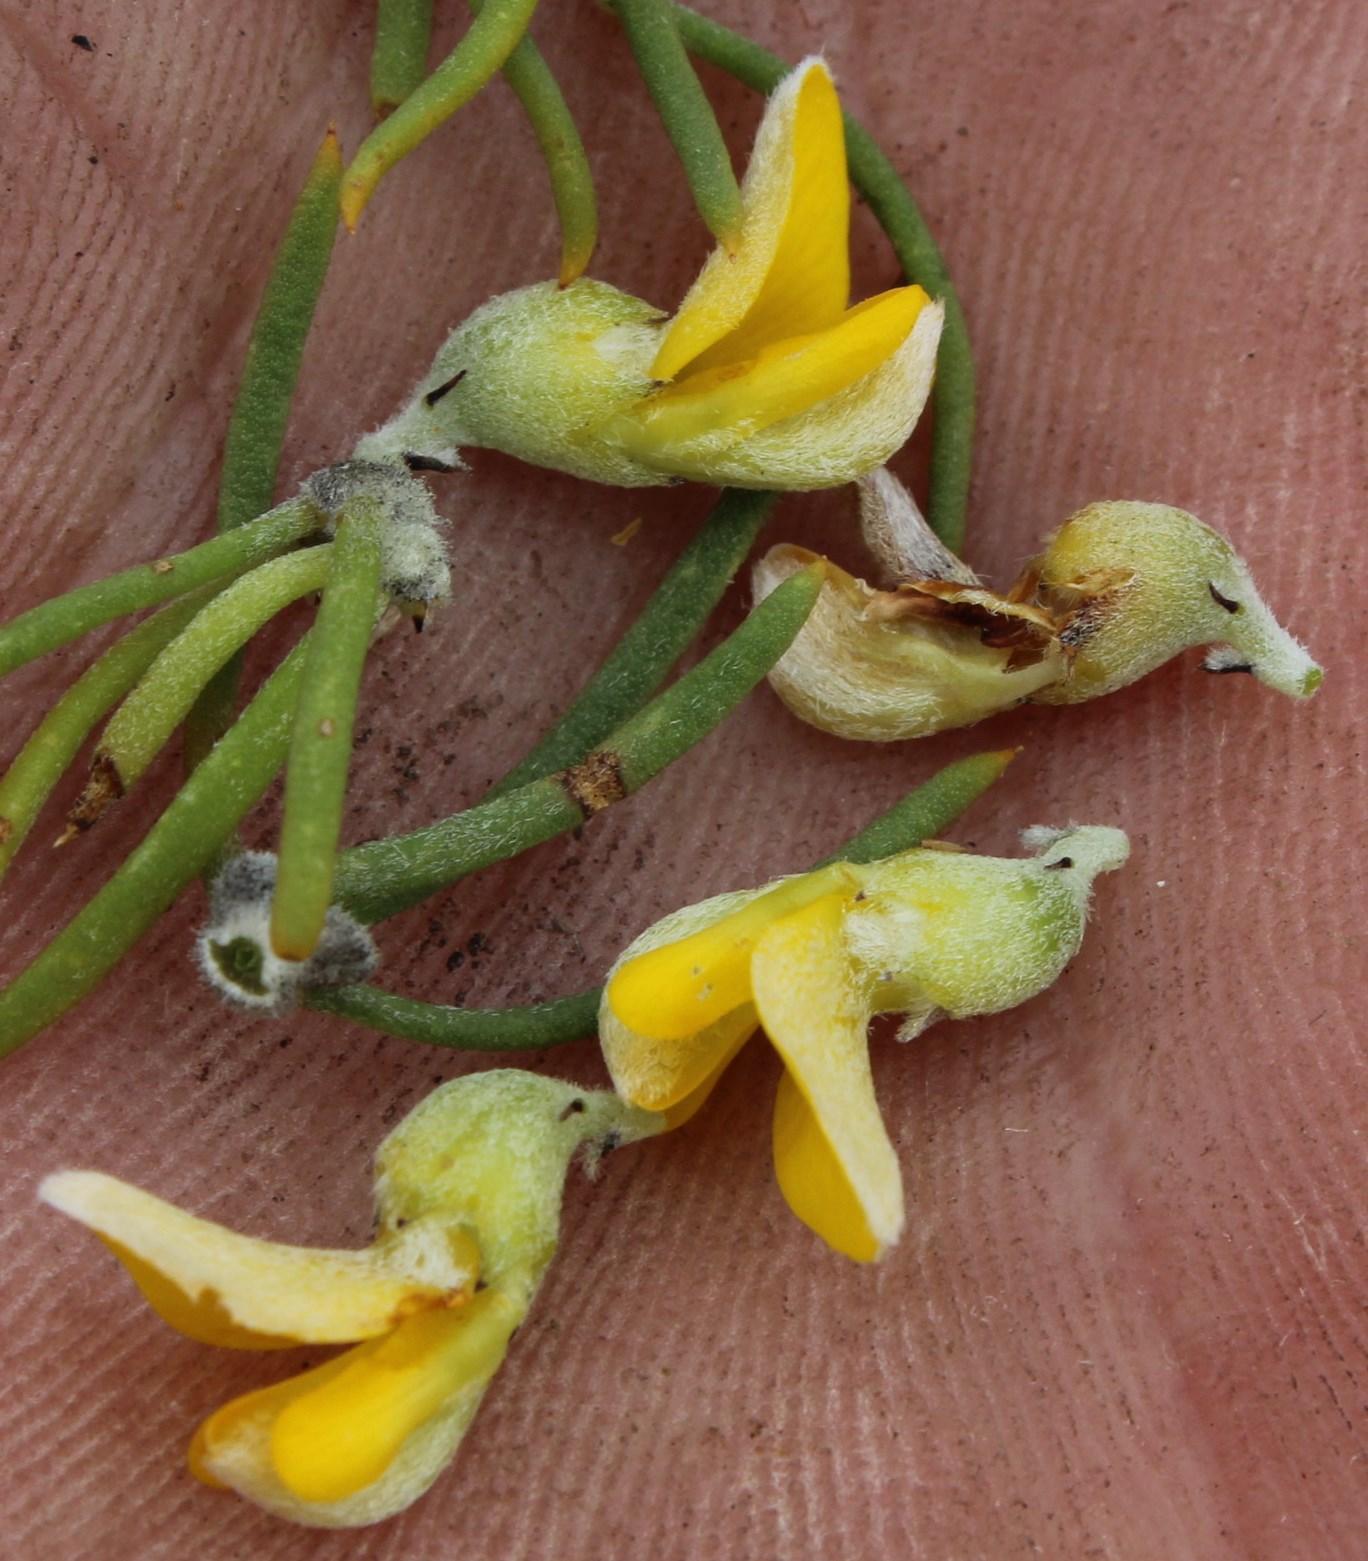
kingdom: Plantae
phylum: Tracheophyta
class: Magnoliopsida
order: Fabales
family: Fabaceae
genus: Aspalathus
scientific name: Aspalathus burchelliana
